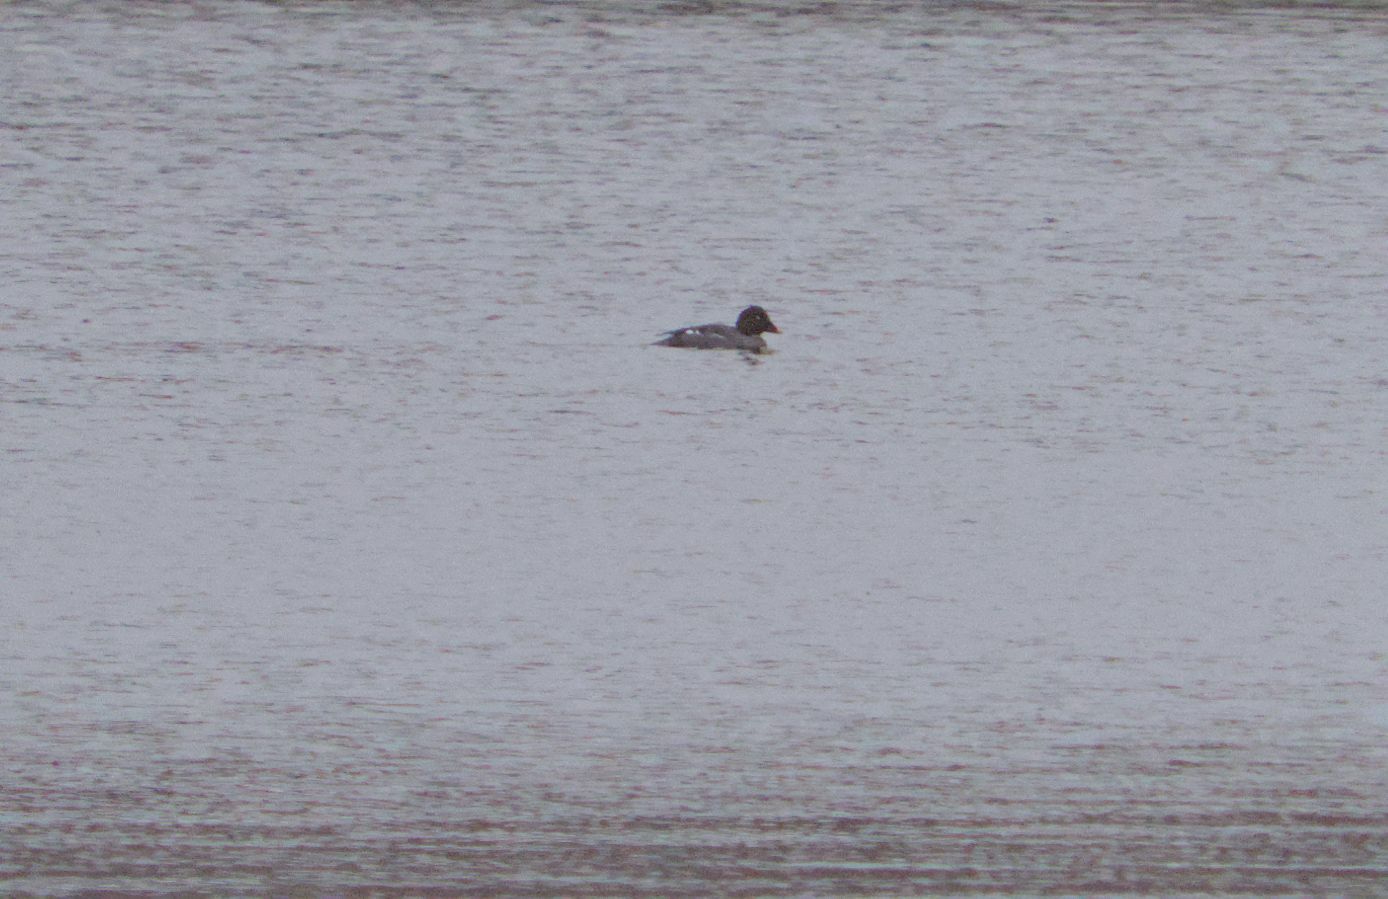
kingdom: Animalia
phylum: Chordata
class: Aves
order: Anseriformes
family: Anatidae
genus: Bucephala
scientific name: Bucephala clangula
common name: Common goldeneye
